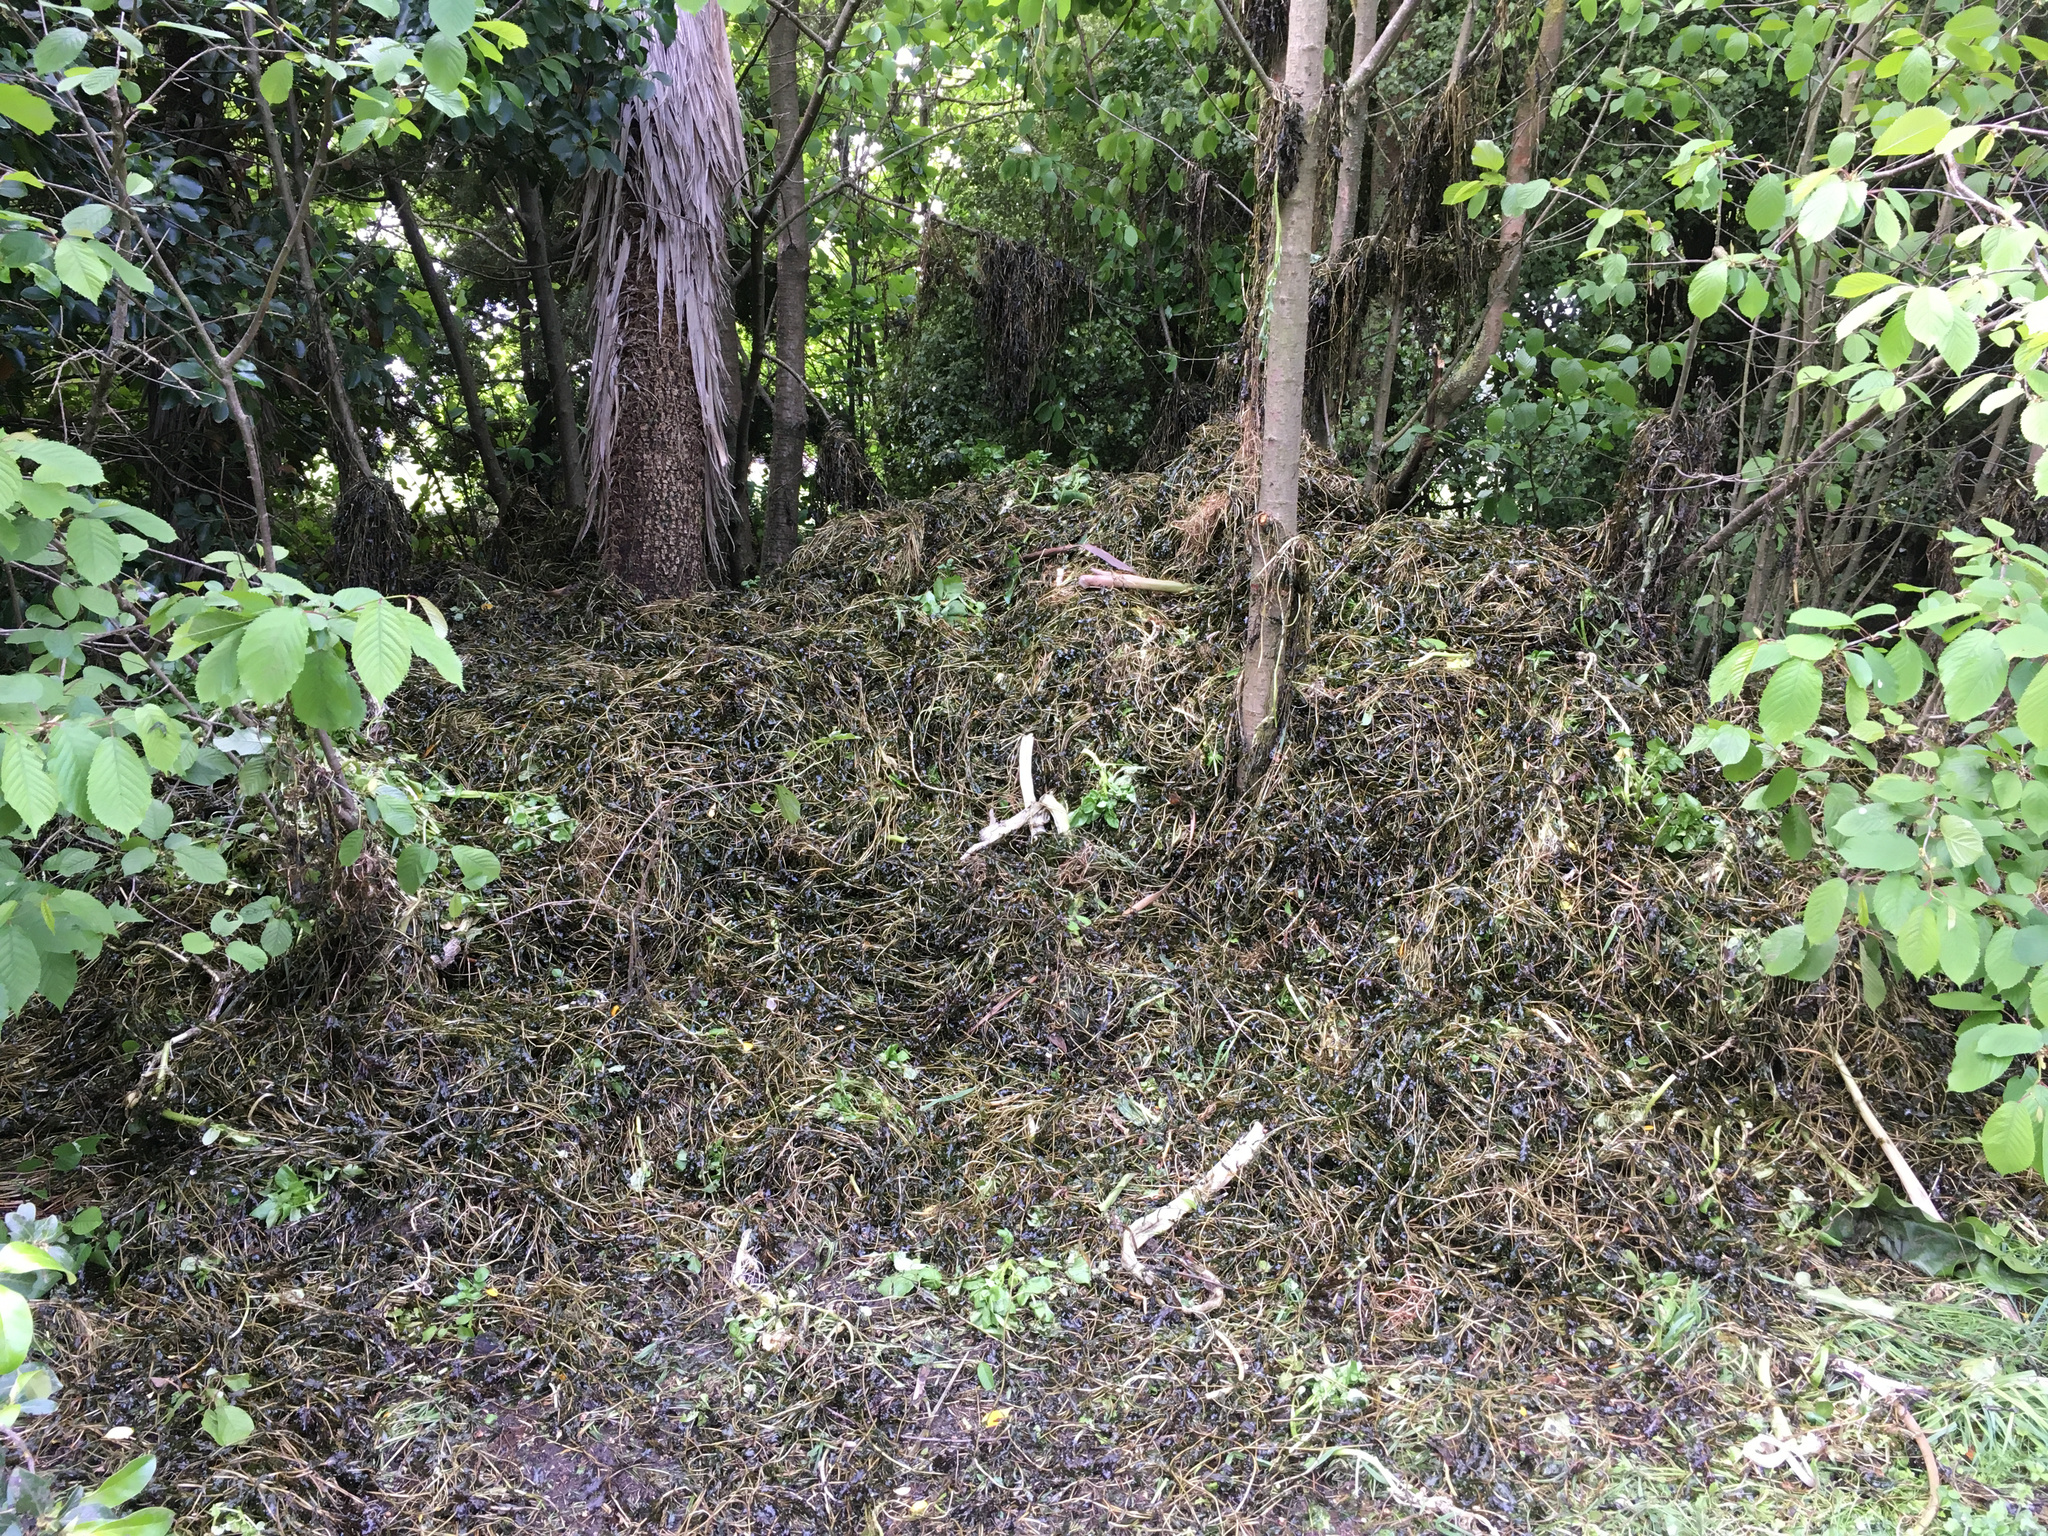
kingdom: Plantae
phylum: Tracheophyta
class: Liliopsida
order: Alismatales
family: Potamogetonaceae
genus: Potamogeton
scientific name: Potamogeton crispus
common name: Curled pondweed
